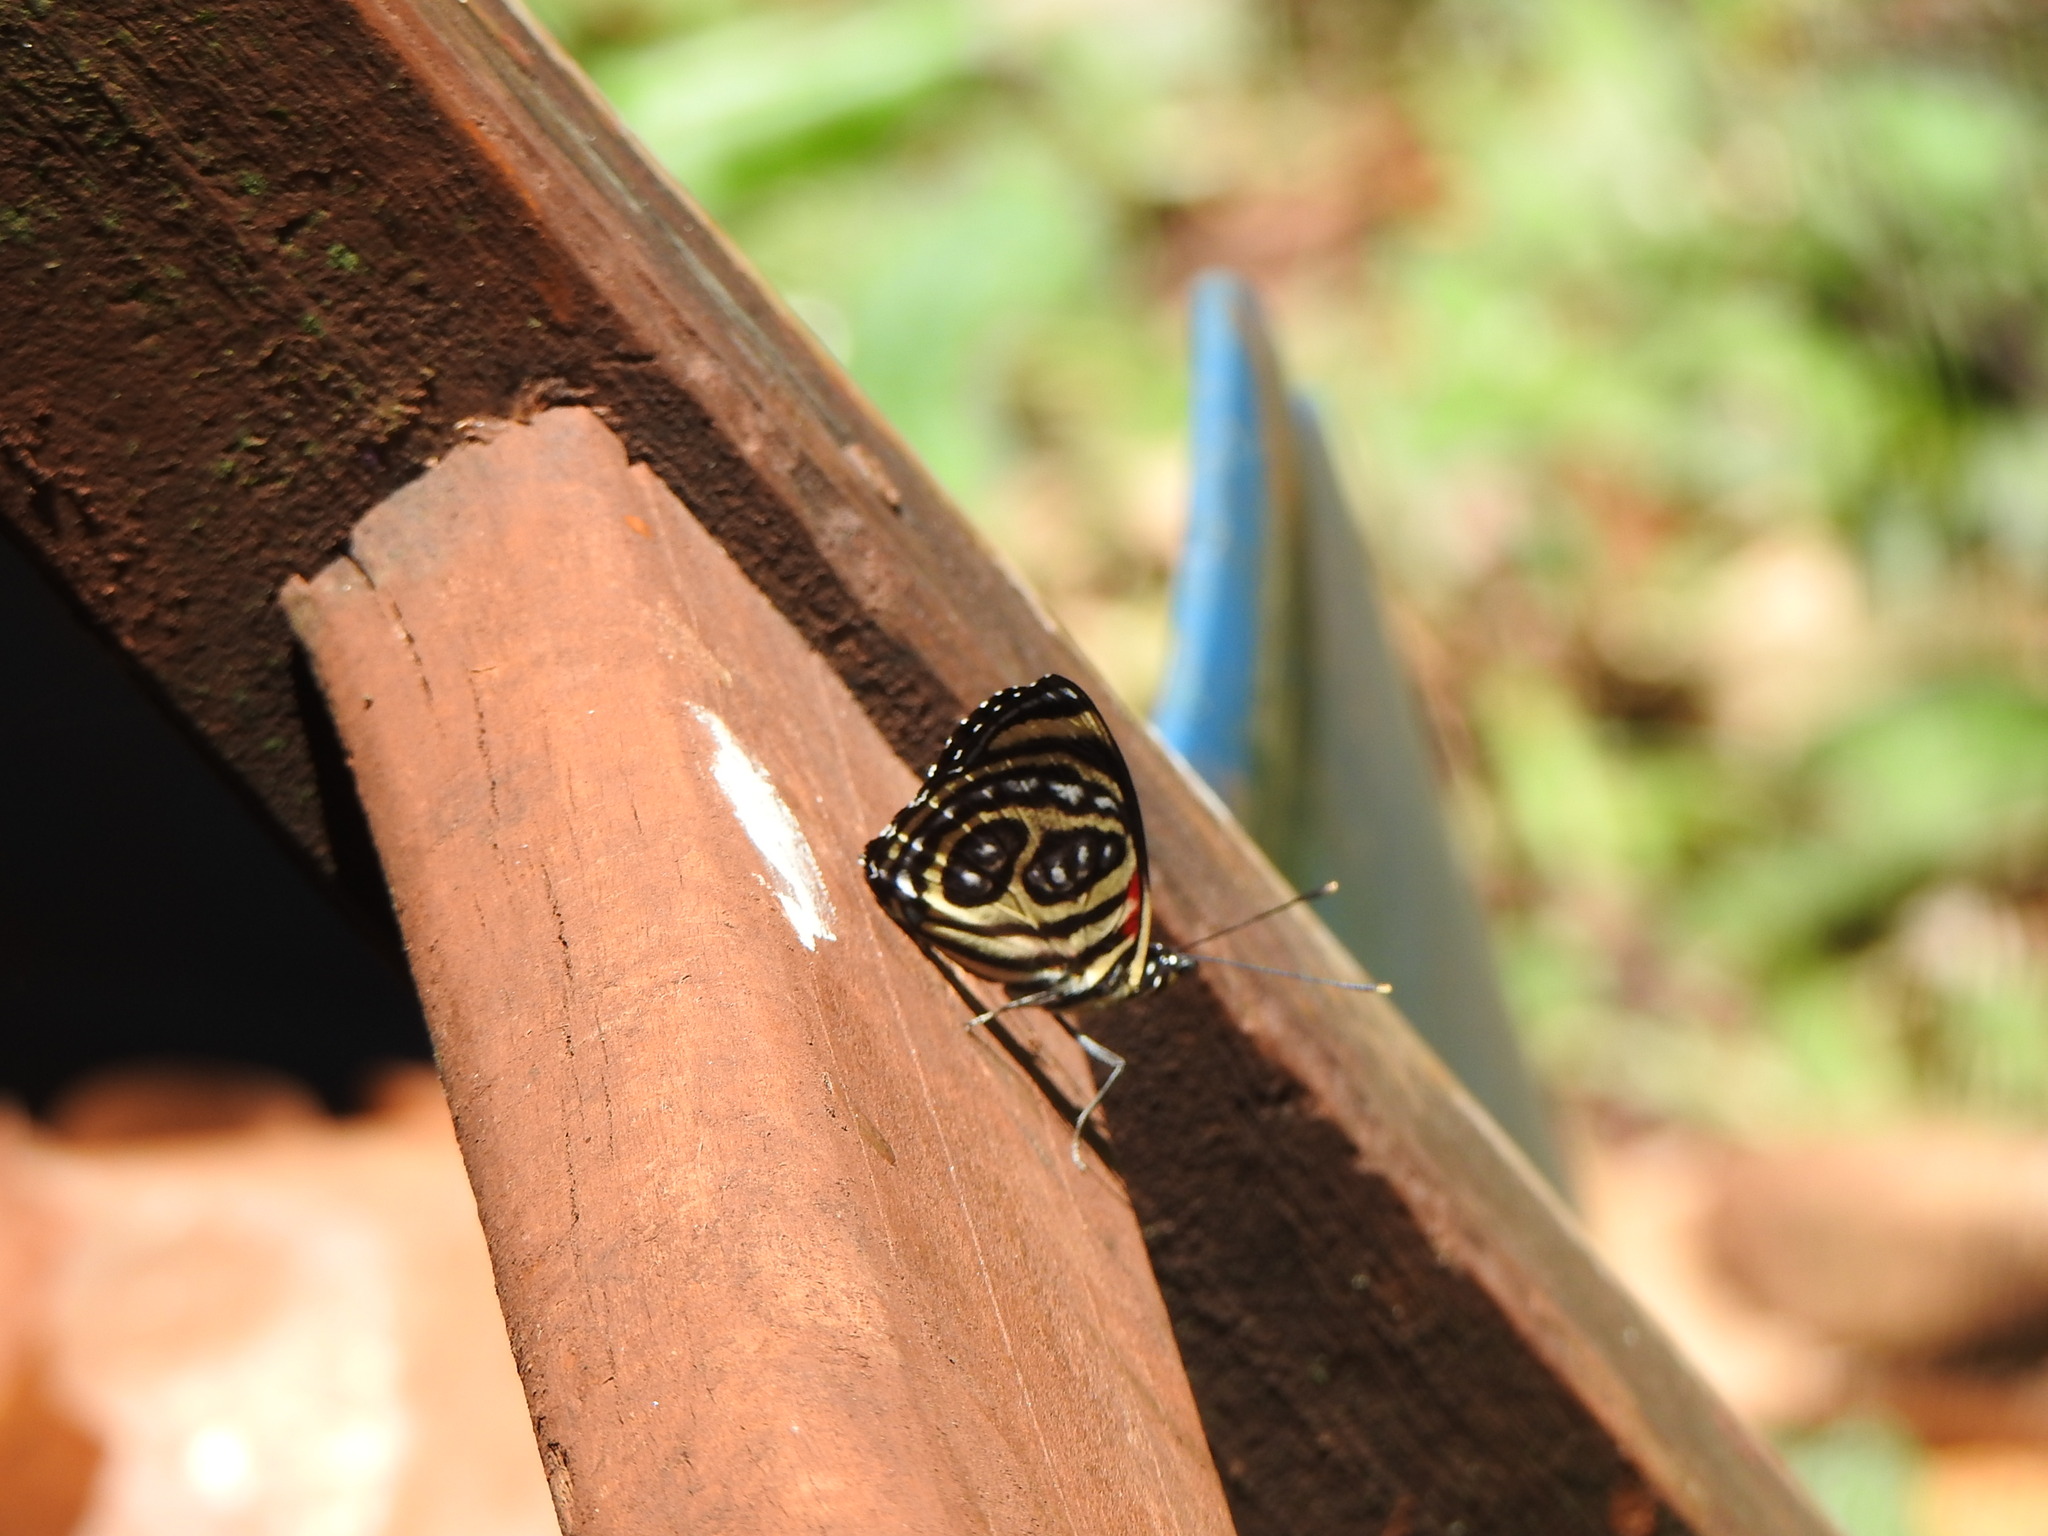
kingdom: Animalia
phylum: Arthropoda
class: Insecta
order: Lepidoptera
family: Nymphalidae
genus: Catagramma
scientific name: Catagramma pygas
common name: Godart's numberwing
